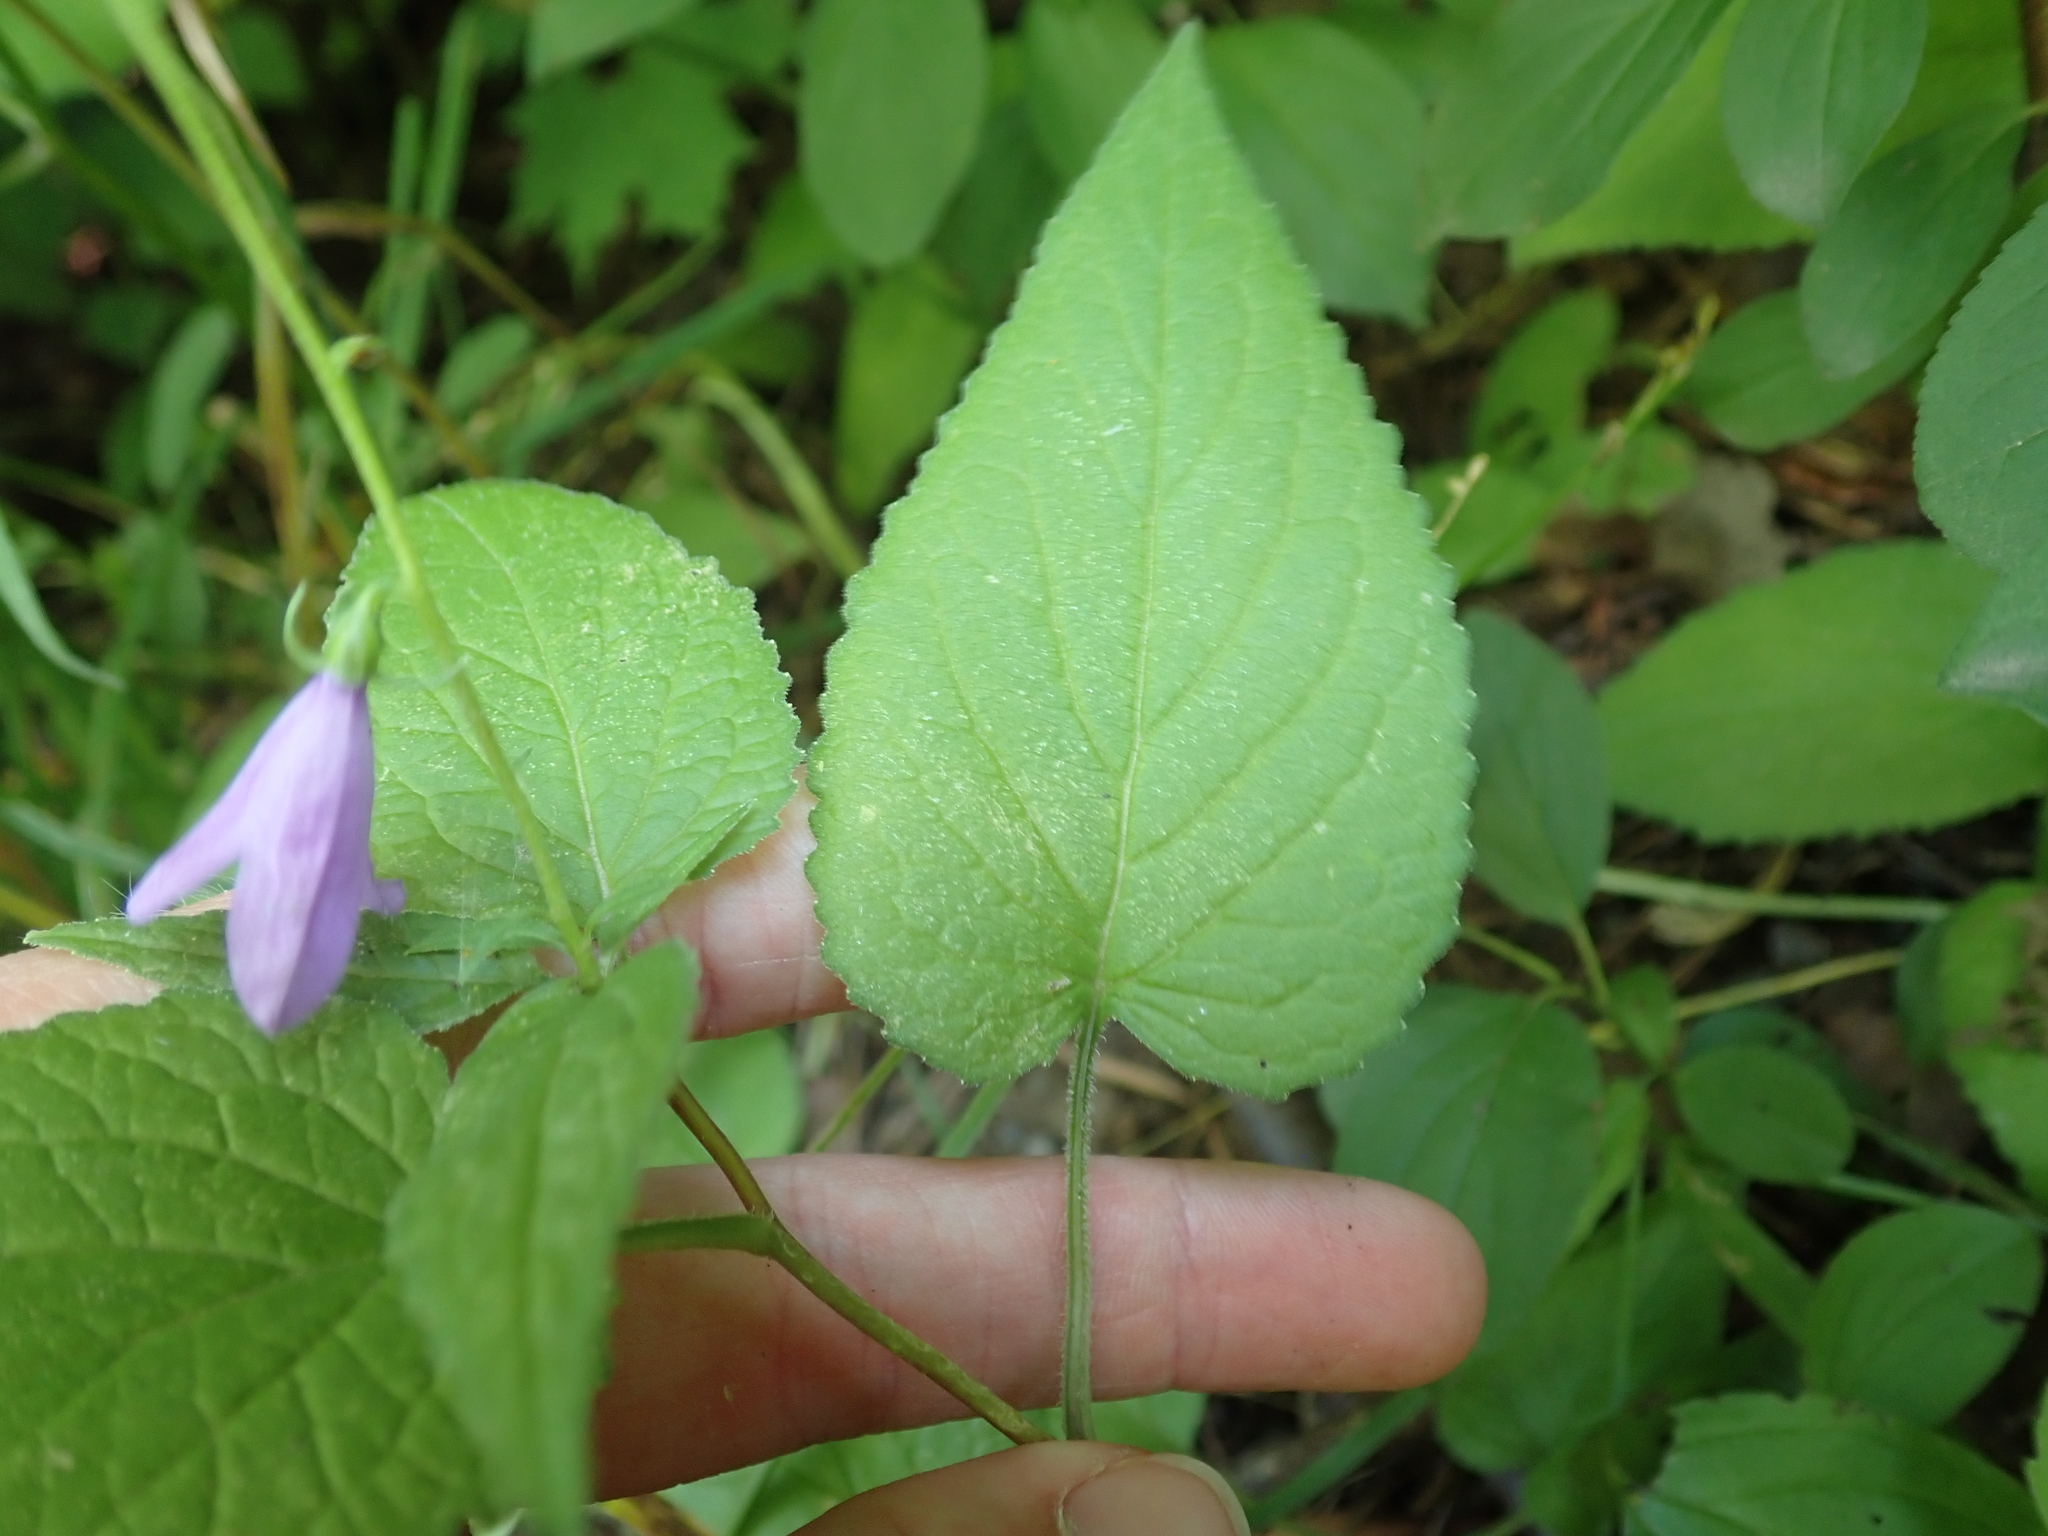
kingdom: Plantae
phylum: Tracheophyta
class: Magnoliopsida
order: Asterales
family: Campanulaceae
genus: Campanula
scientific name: Campanula rapunculoides
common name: Creeping bellflower
